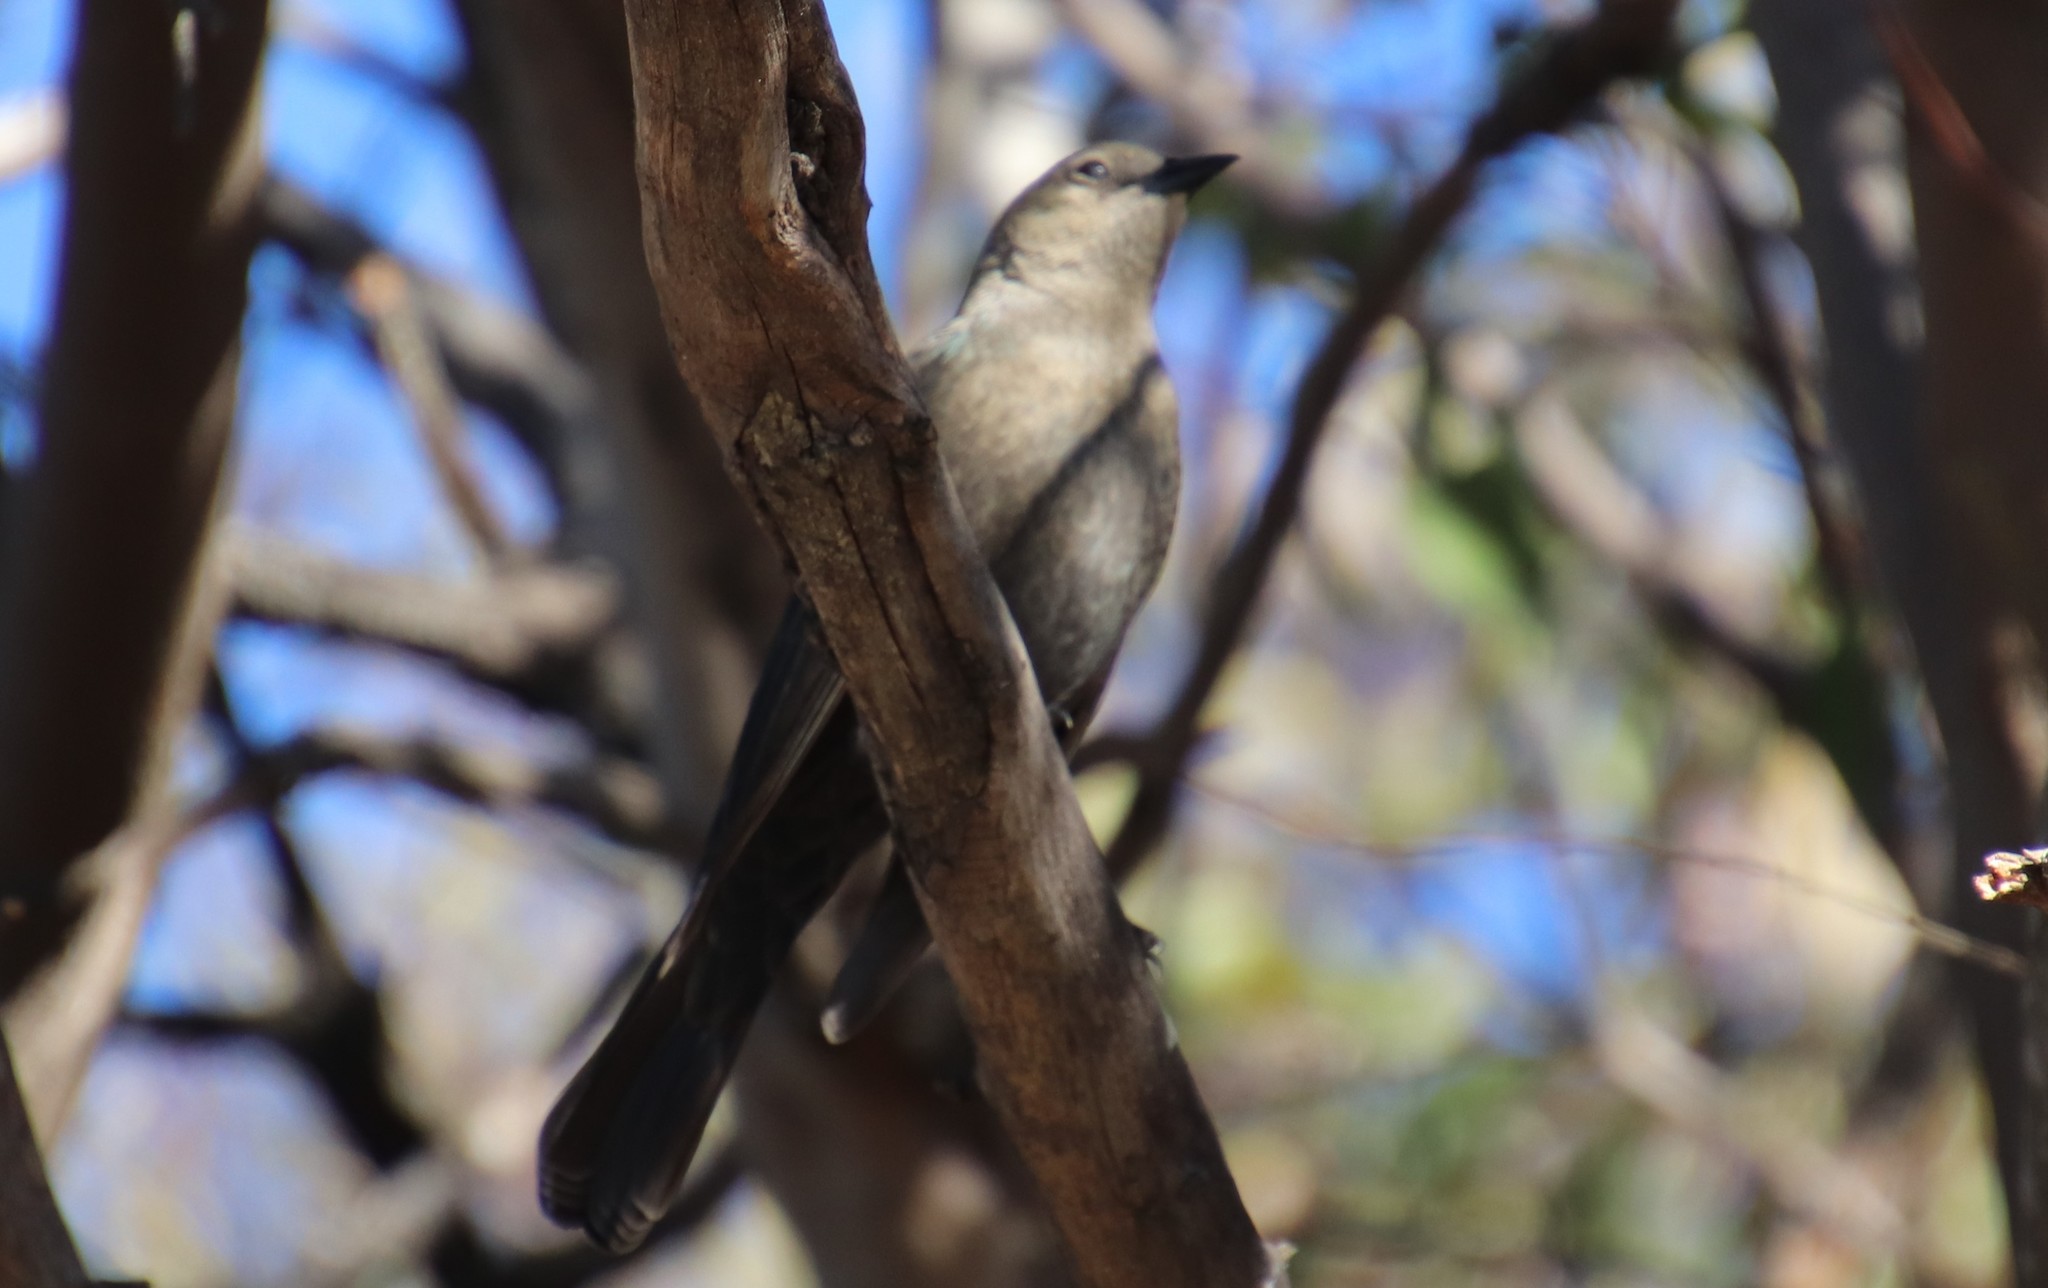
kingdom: Animalia
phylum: Chordata
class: Aves
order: Passeriformes
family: Icteridae
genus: Euphagus
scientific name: Euphagus cyanocephalus
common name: Brewer's blackbird
